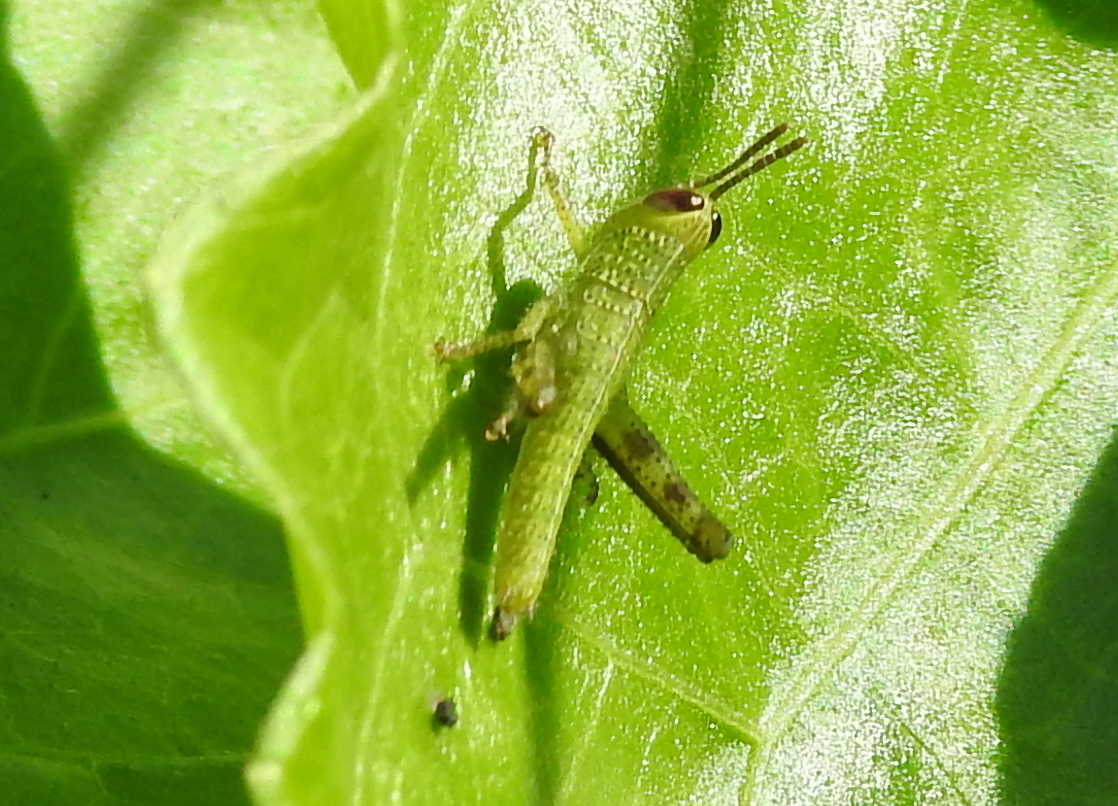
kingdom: Animalia
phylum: Arthropoda
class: Insecta
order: Orthoptera
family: Acrididae
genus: Valanga
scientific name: Valanga nigricornis
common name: Javanese bird grasshopper
